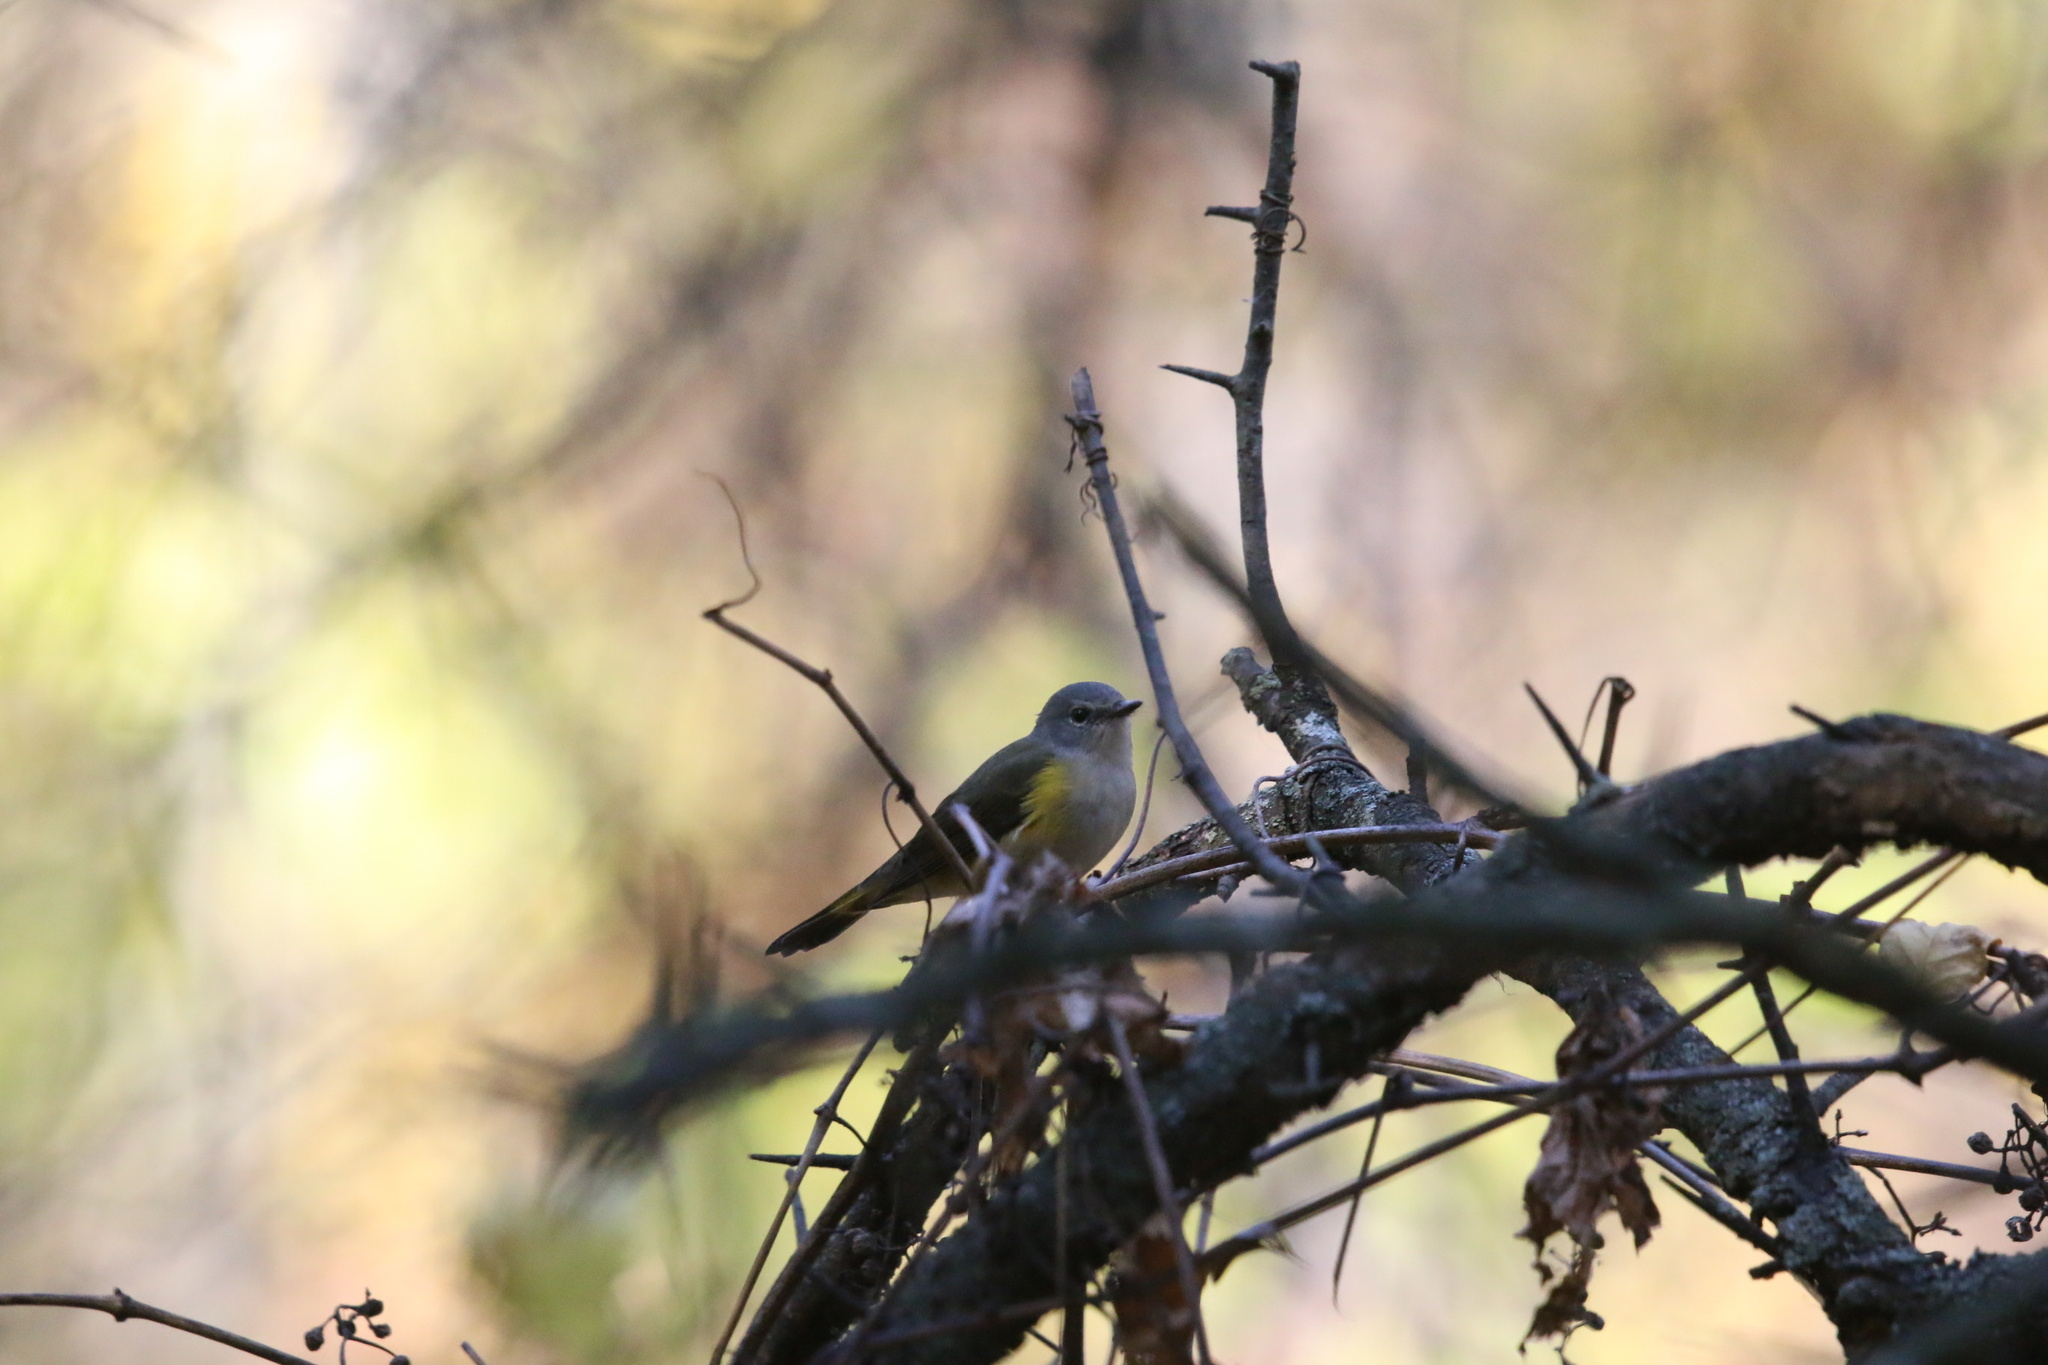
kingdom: Animalia
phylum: Chordata
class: Aves
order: Passeriformes
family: Parulidae
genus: Setophaga
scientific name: Setophaga ruticilla
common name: American redstart
